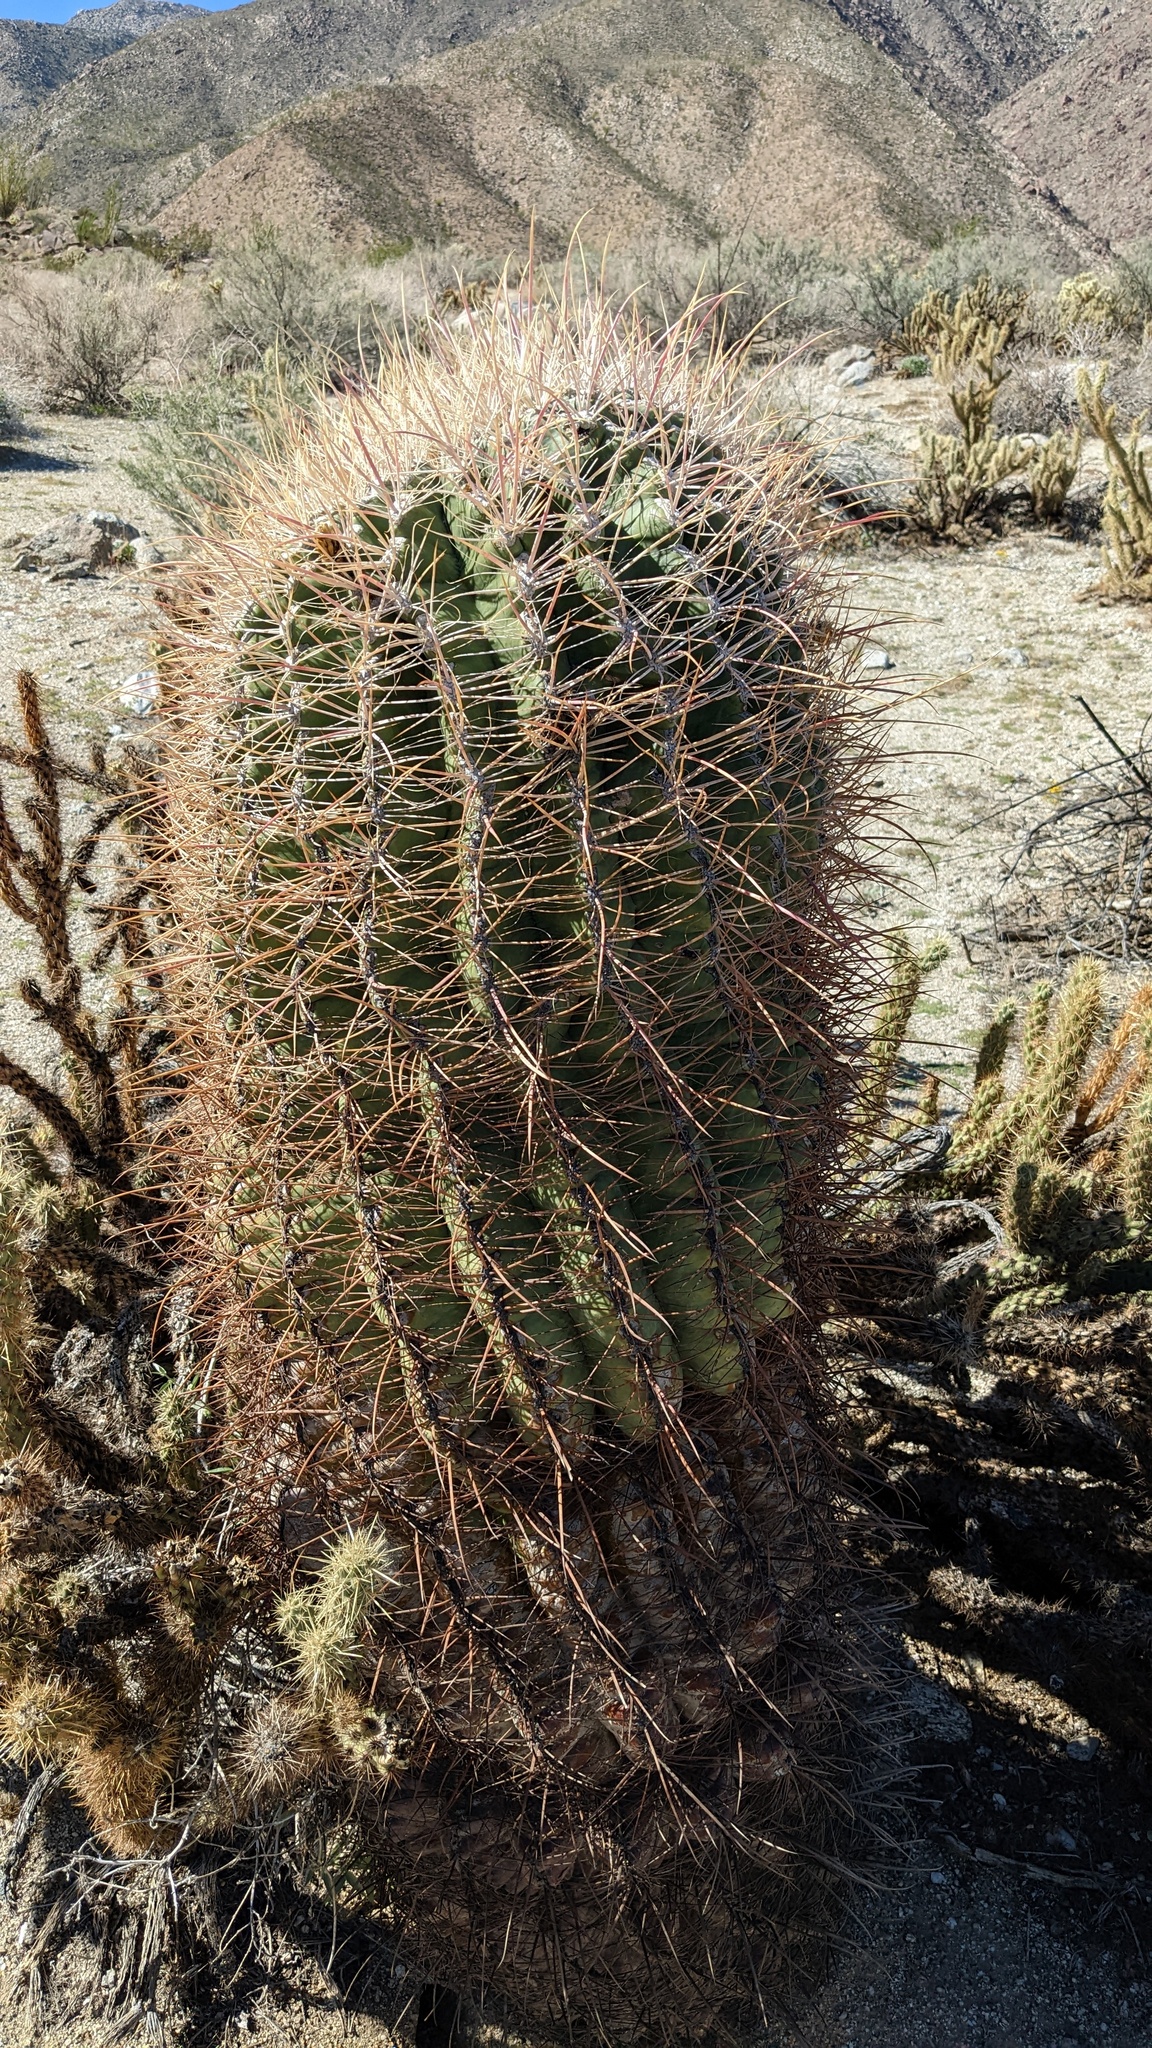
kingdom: Plantae
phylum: Tracheophyta
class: Magnoliopsida
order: Caryophyllales
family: Cactaceae
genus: Ferocactus
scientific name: Ferocactus cylindraceus
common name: California barrel cactus
